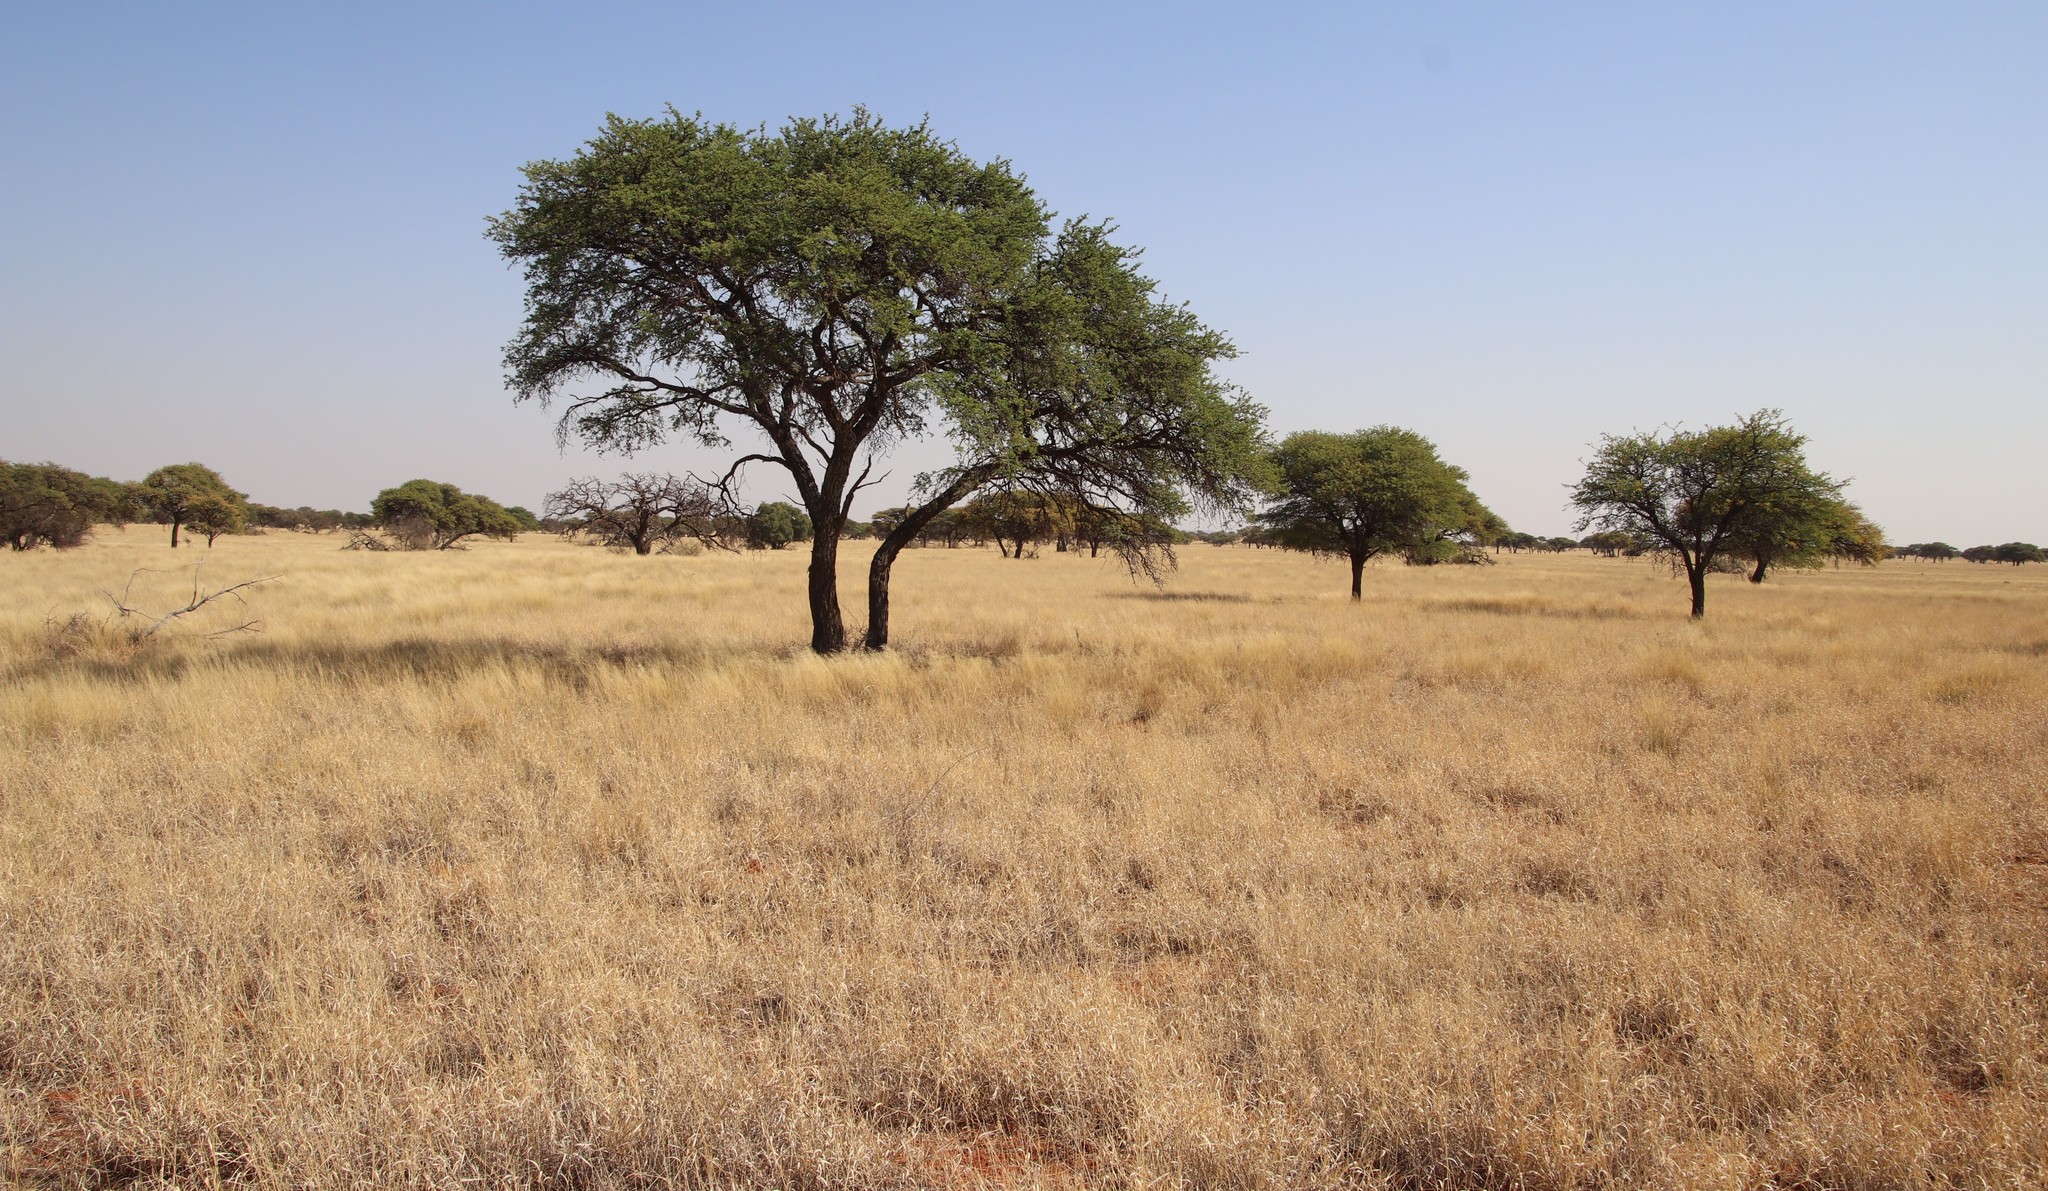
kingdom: Plantae
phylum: Tracheophyta
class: Magnoliopsida
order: Fabales
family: Fabaceae
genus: Vachellia
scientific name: Vachellia erioloba
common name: Camel thorn
